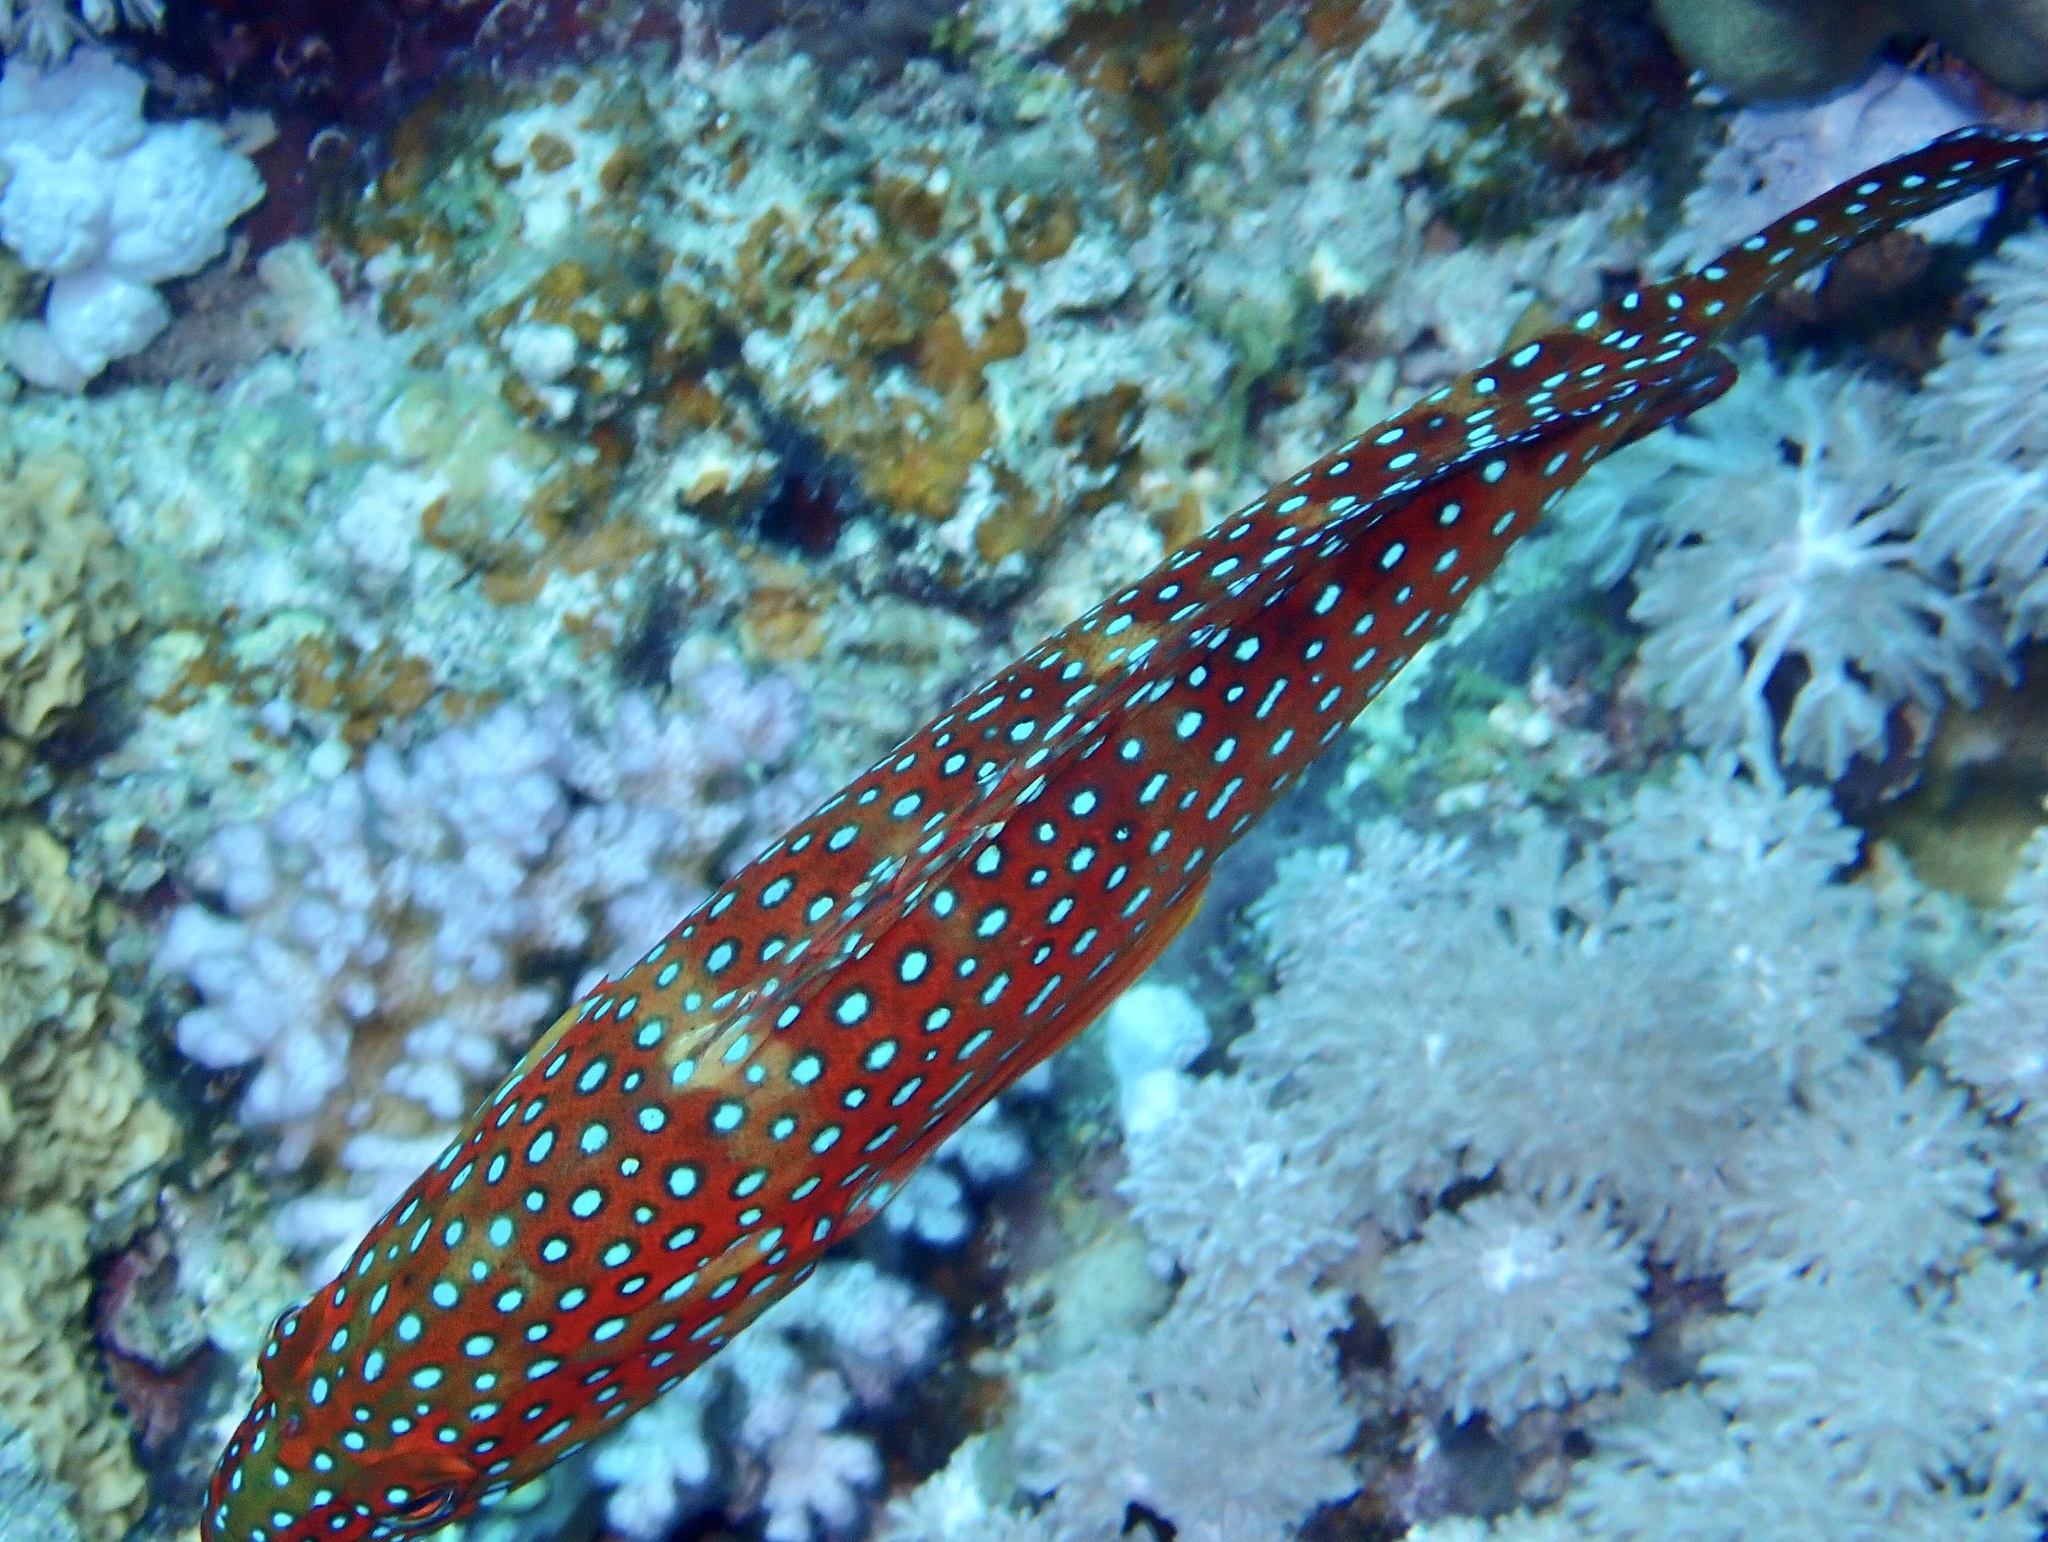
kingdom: Animalia
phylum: Chordata
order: Perciformes
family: Serranidae
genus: Cephalopholis
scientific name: Cephalopholis miniata
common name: Coral hind
